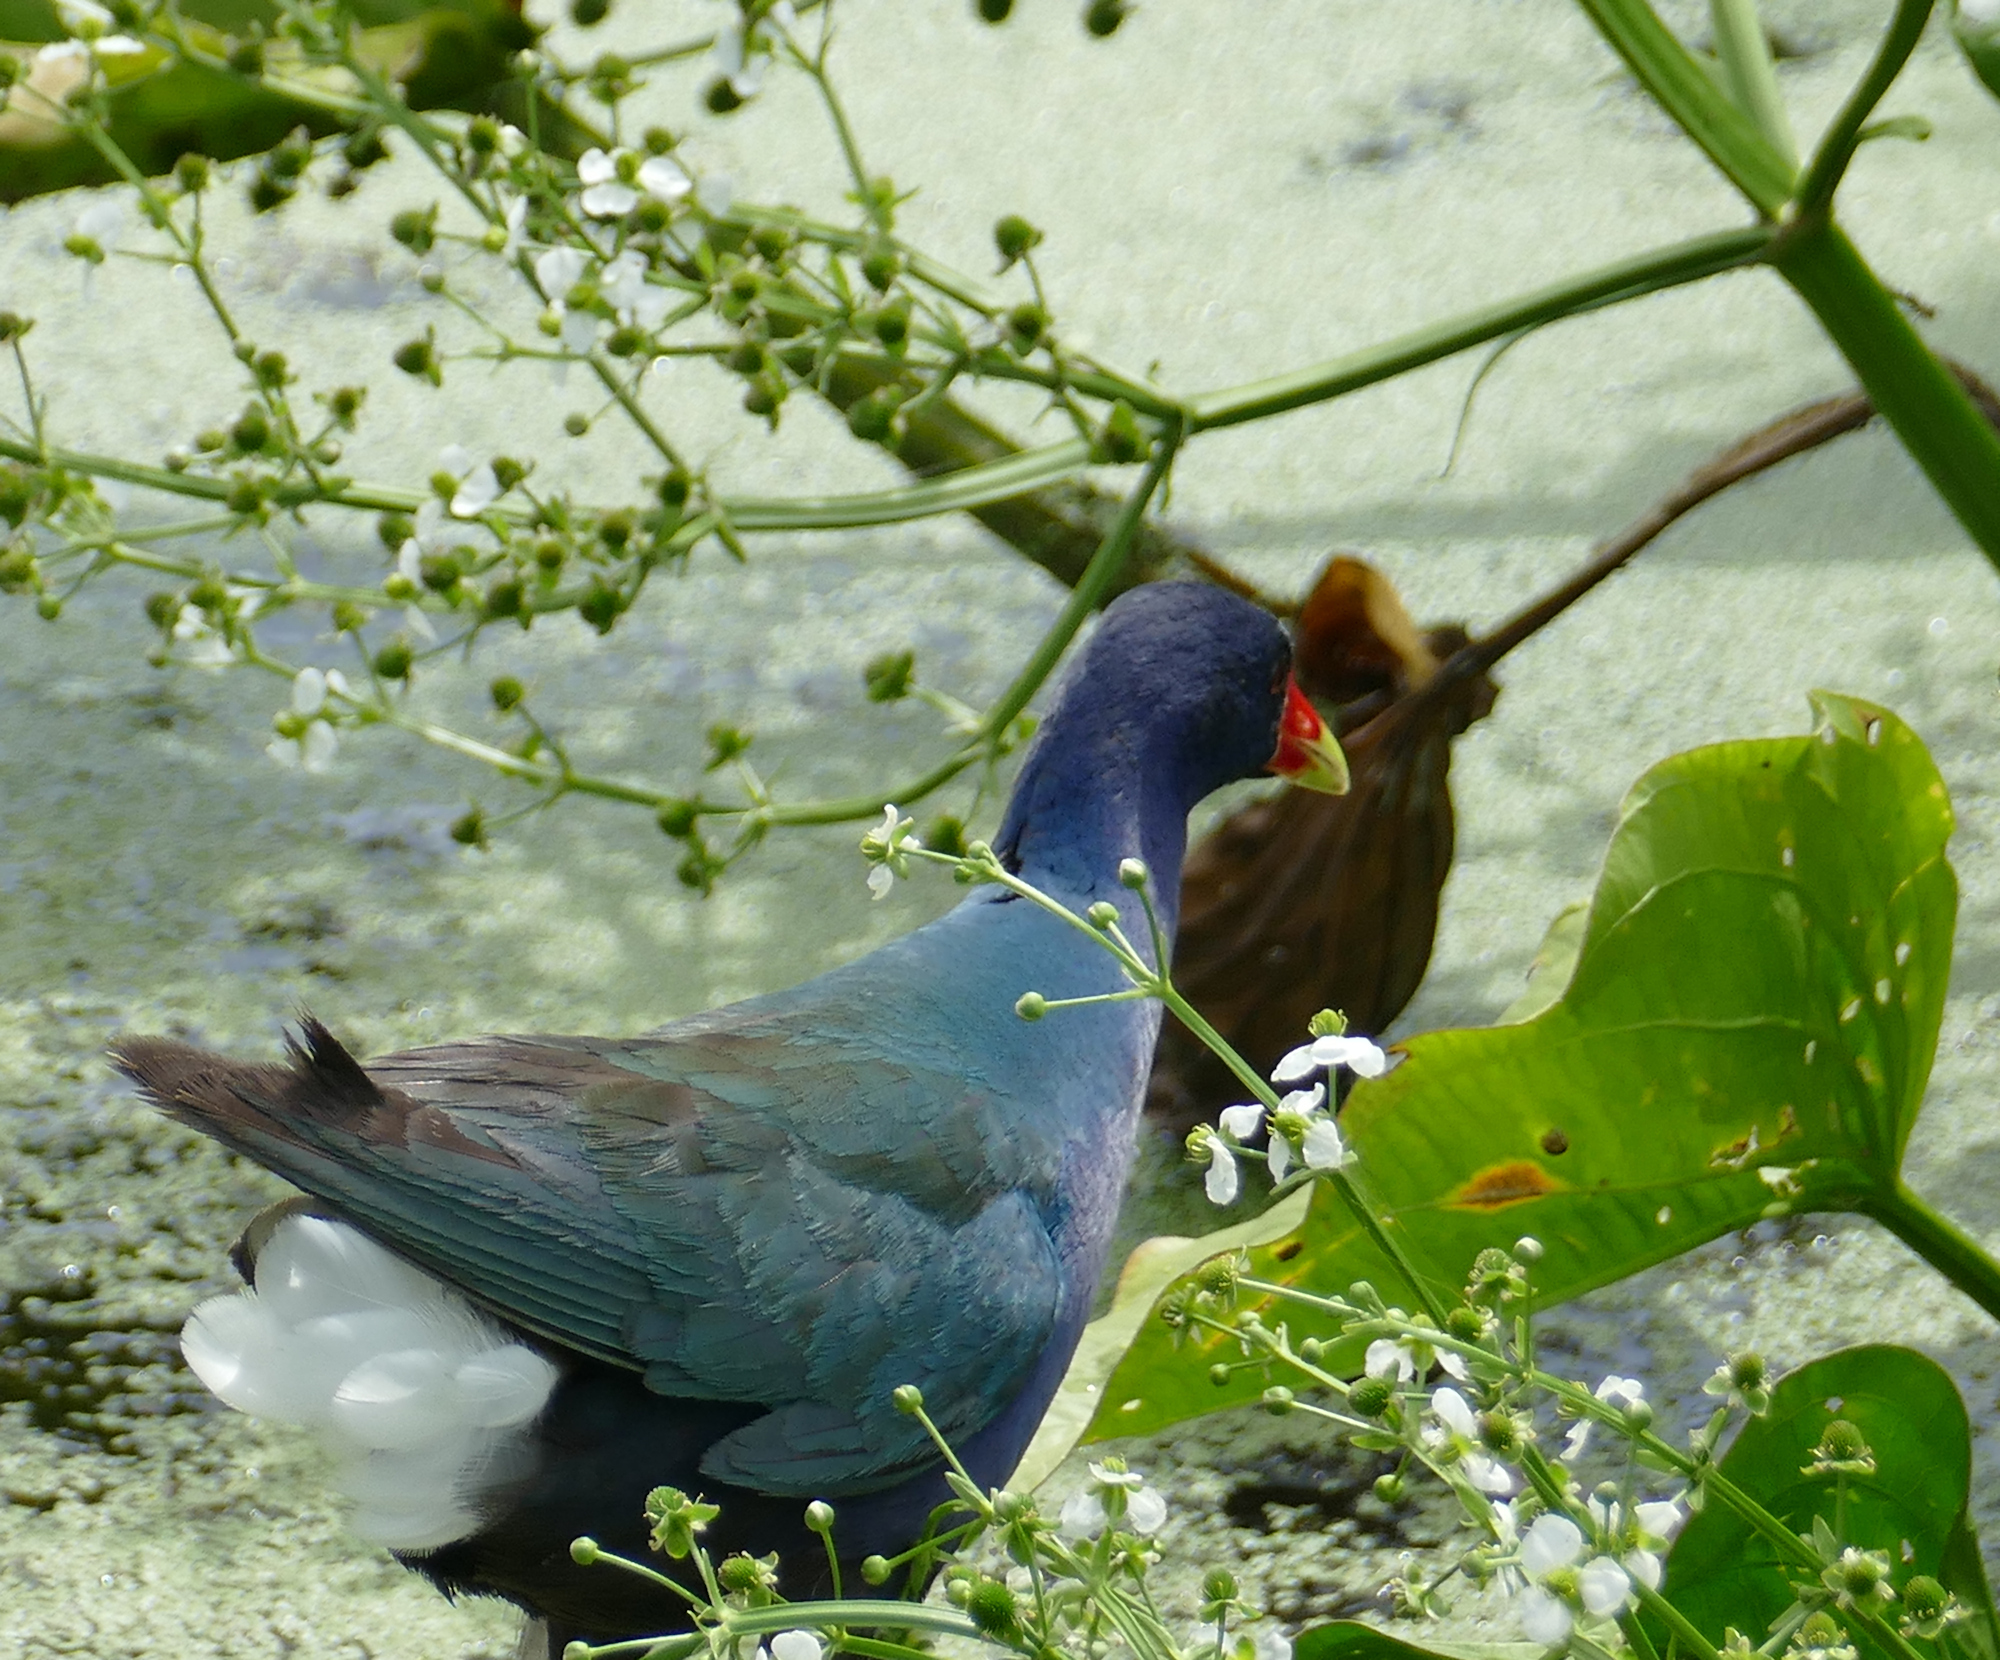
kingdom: Animalia
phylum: Chordata
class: Aves
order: Gruiformes
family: Rallidae
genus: Porphyrio
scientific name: Porphyrio martinica
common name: Purple gallinule
